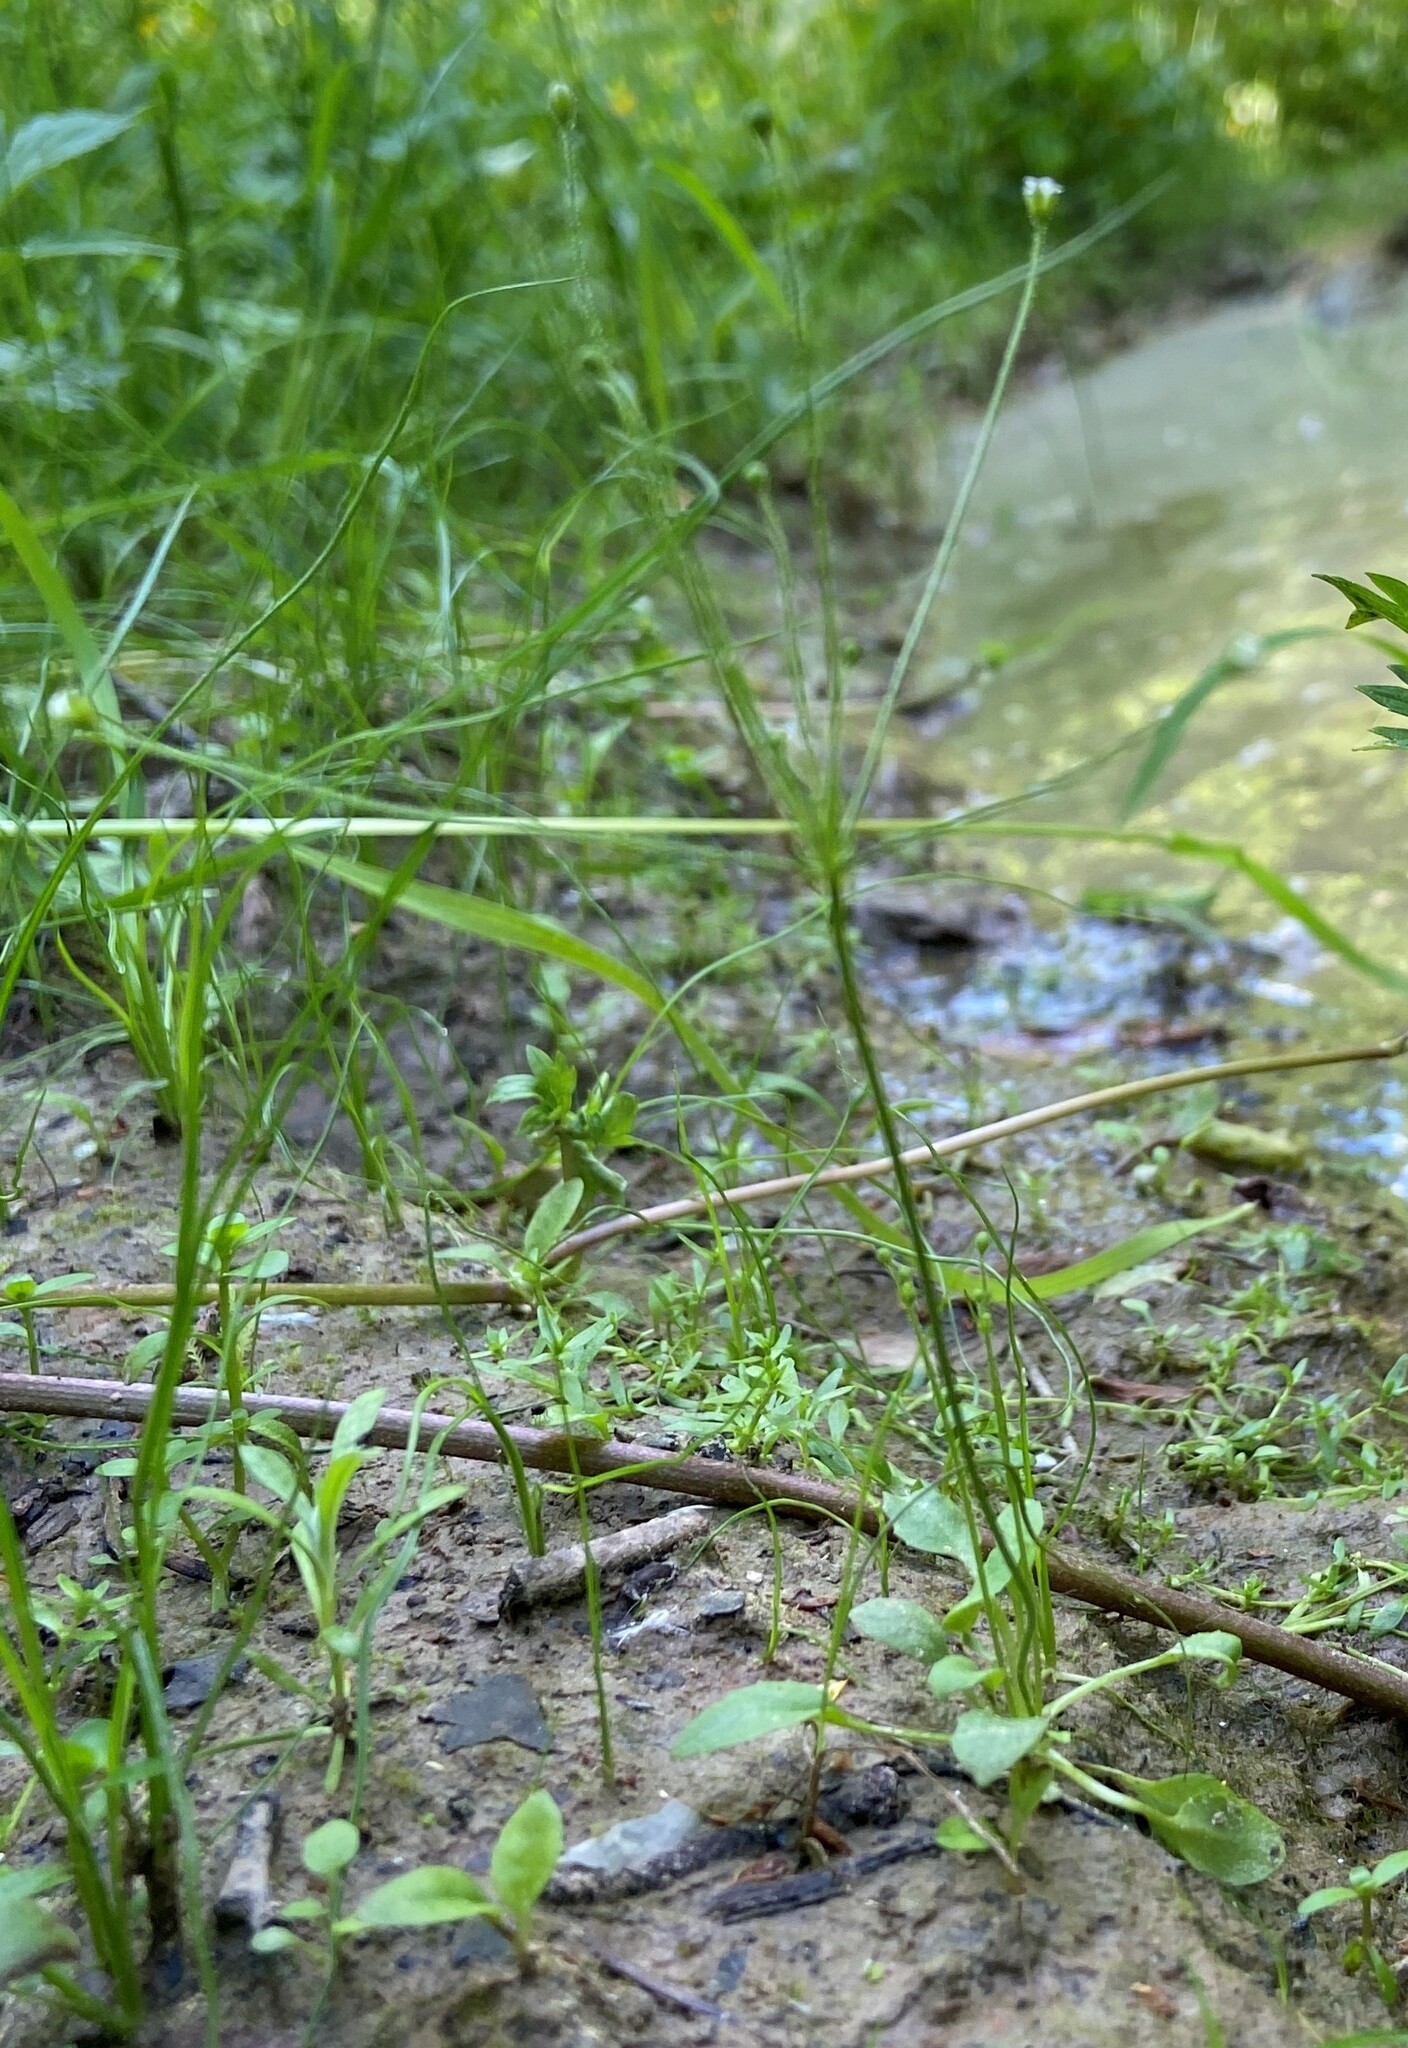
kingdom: Plantae
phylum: Tracheophyta
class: Magnoliopsida
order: Ericales
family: Primulaceae
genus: Androsace
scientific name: Androsace filiformis
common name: Filiform rock jasmine
